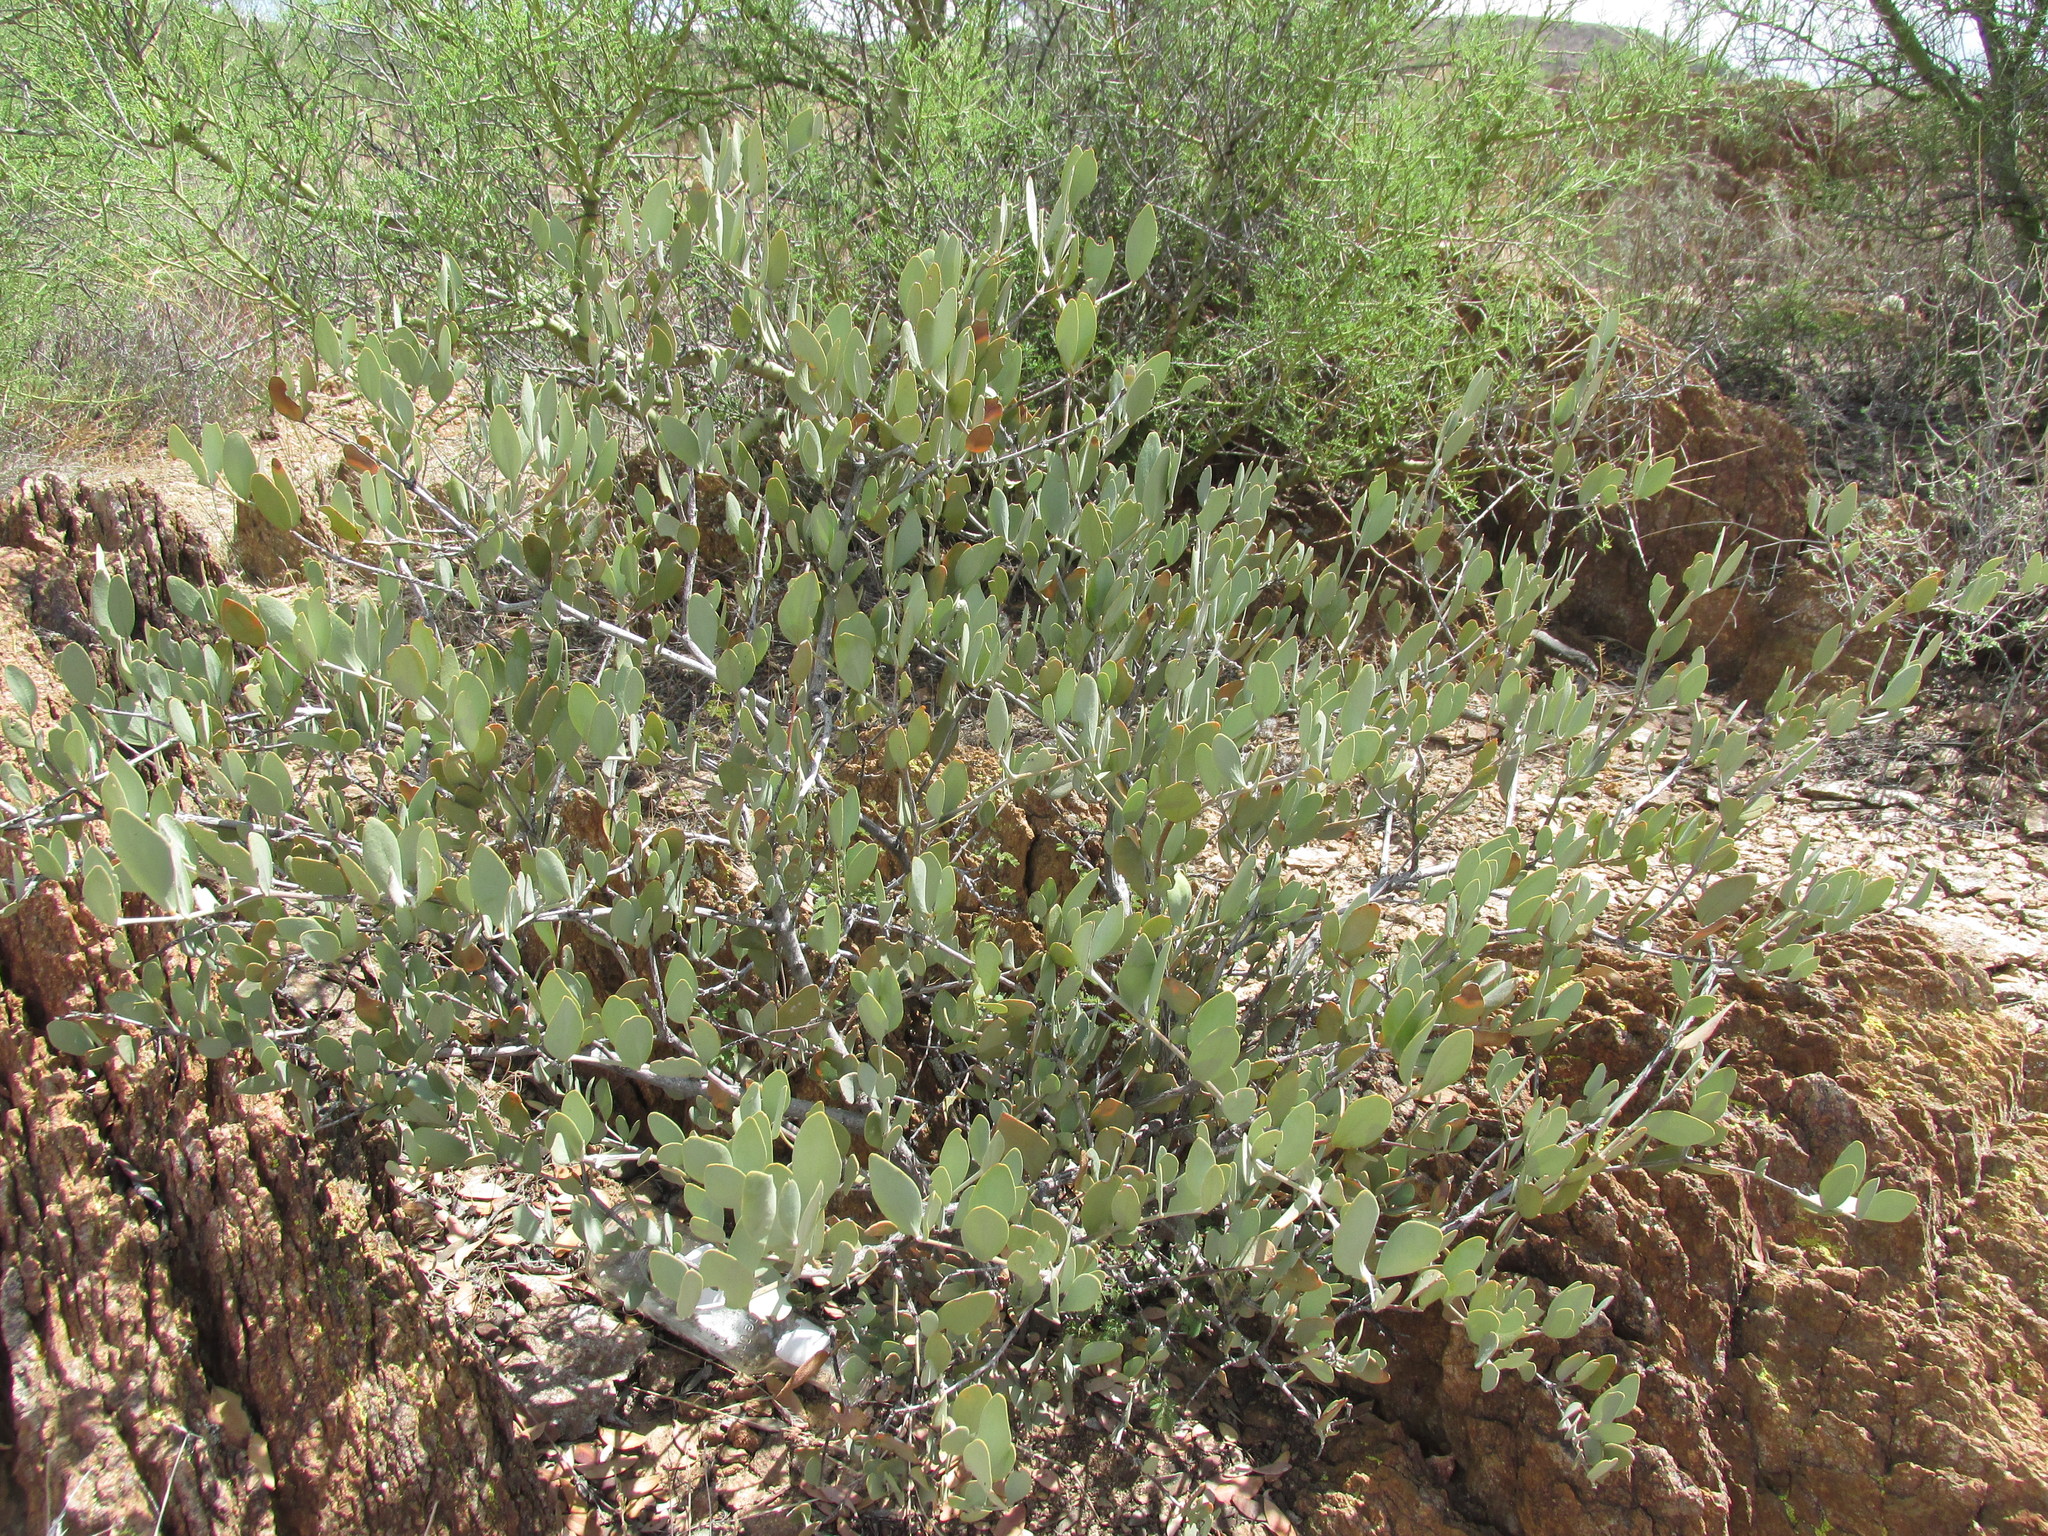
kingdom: Plantae
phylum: Tracheophyta
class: Magnoliopsida
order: Caryophyllales
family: Simmondsiaceae
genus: Simmondsia
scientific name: Simmondsia chinensis
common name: Jojoba
